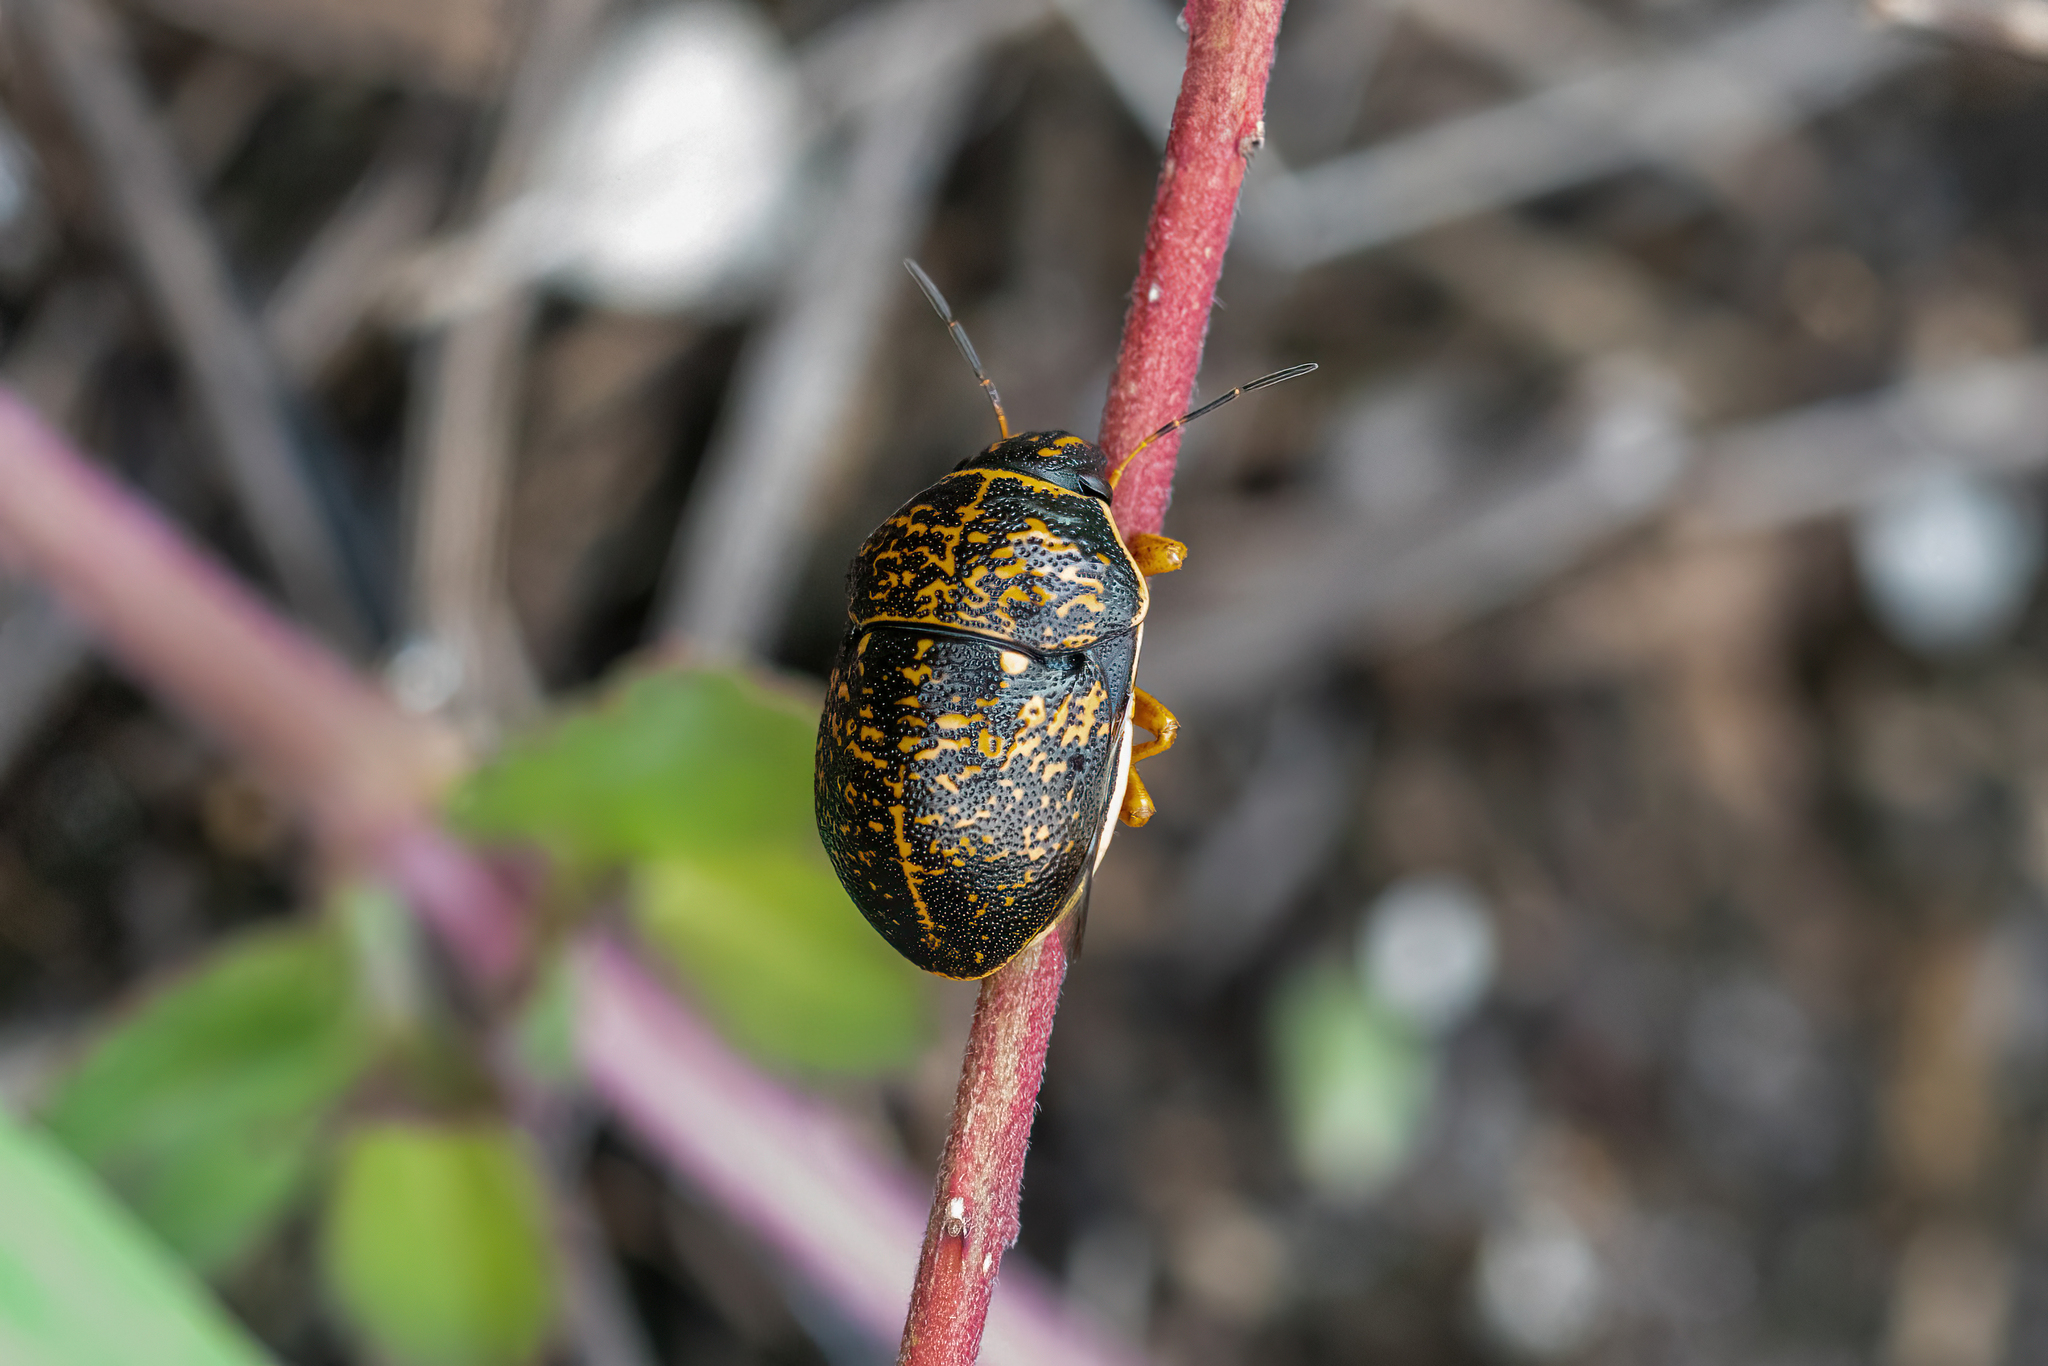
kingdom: Animalia
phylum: Arthropoda
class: Insecta
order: Hemiptera
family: Scutelleridae
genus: Orsilochides
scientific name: Orsilochides guttata
